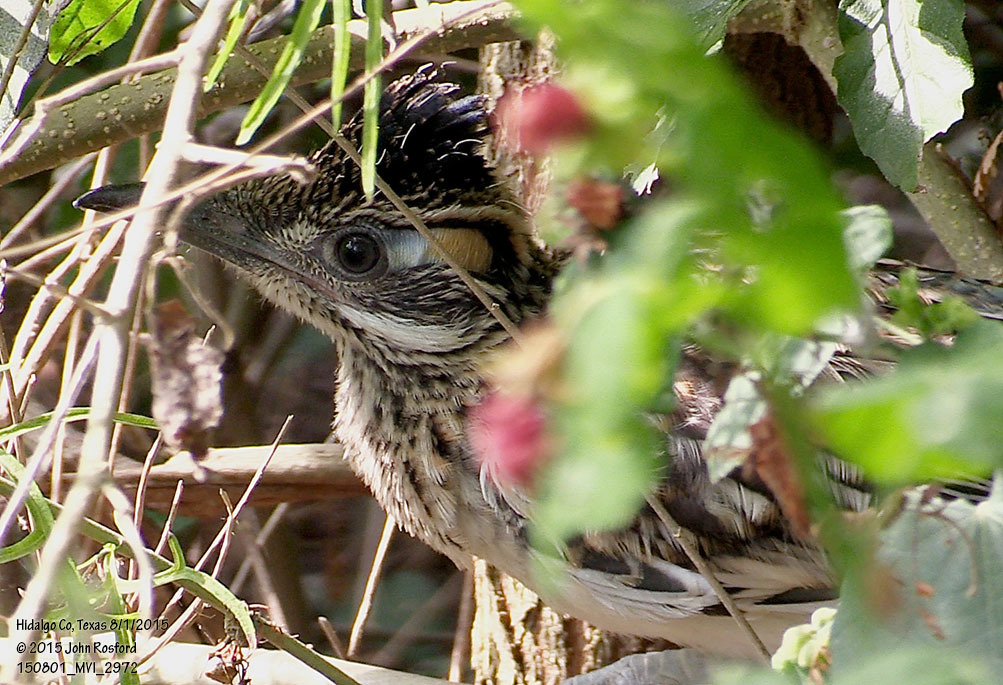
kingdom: Animalia
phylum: Chordata
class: Aves
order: Cuculiformes
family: Cuculidae
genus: Geococcyx
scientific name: Geococcyx californianus
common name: Greater roadrunner
